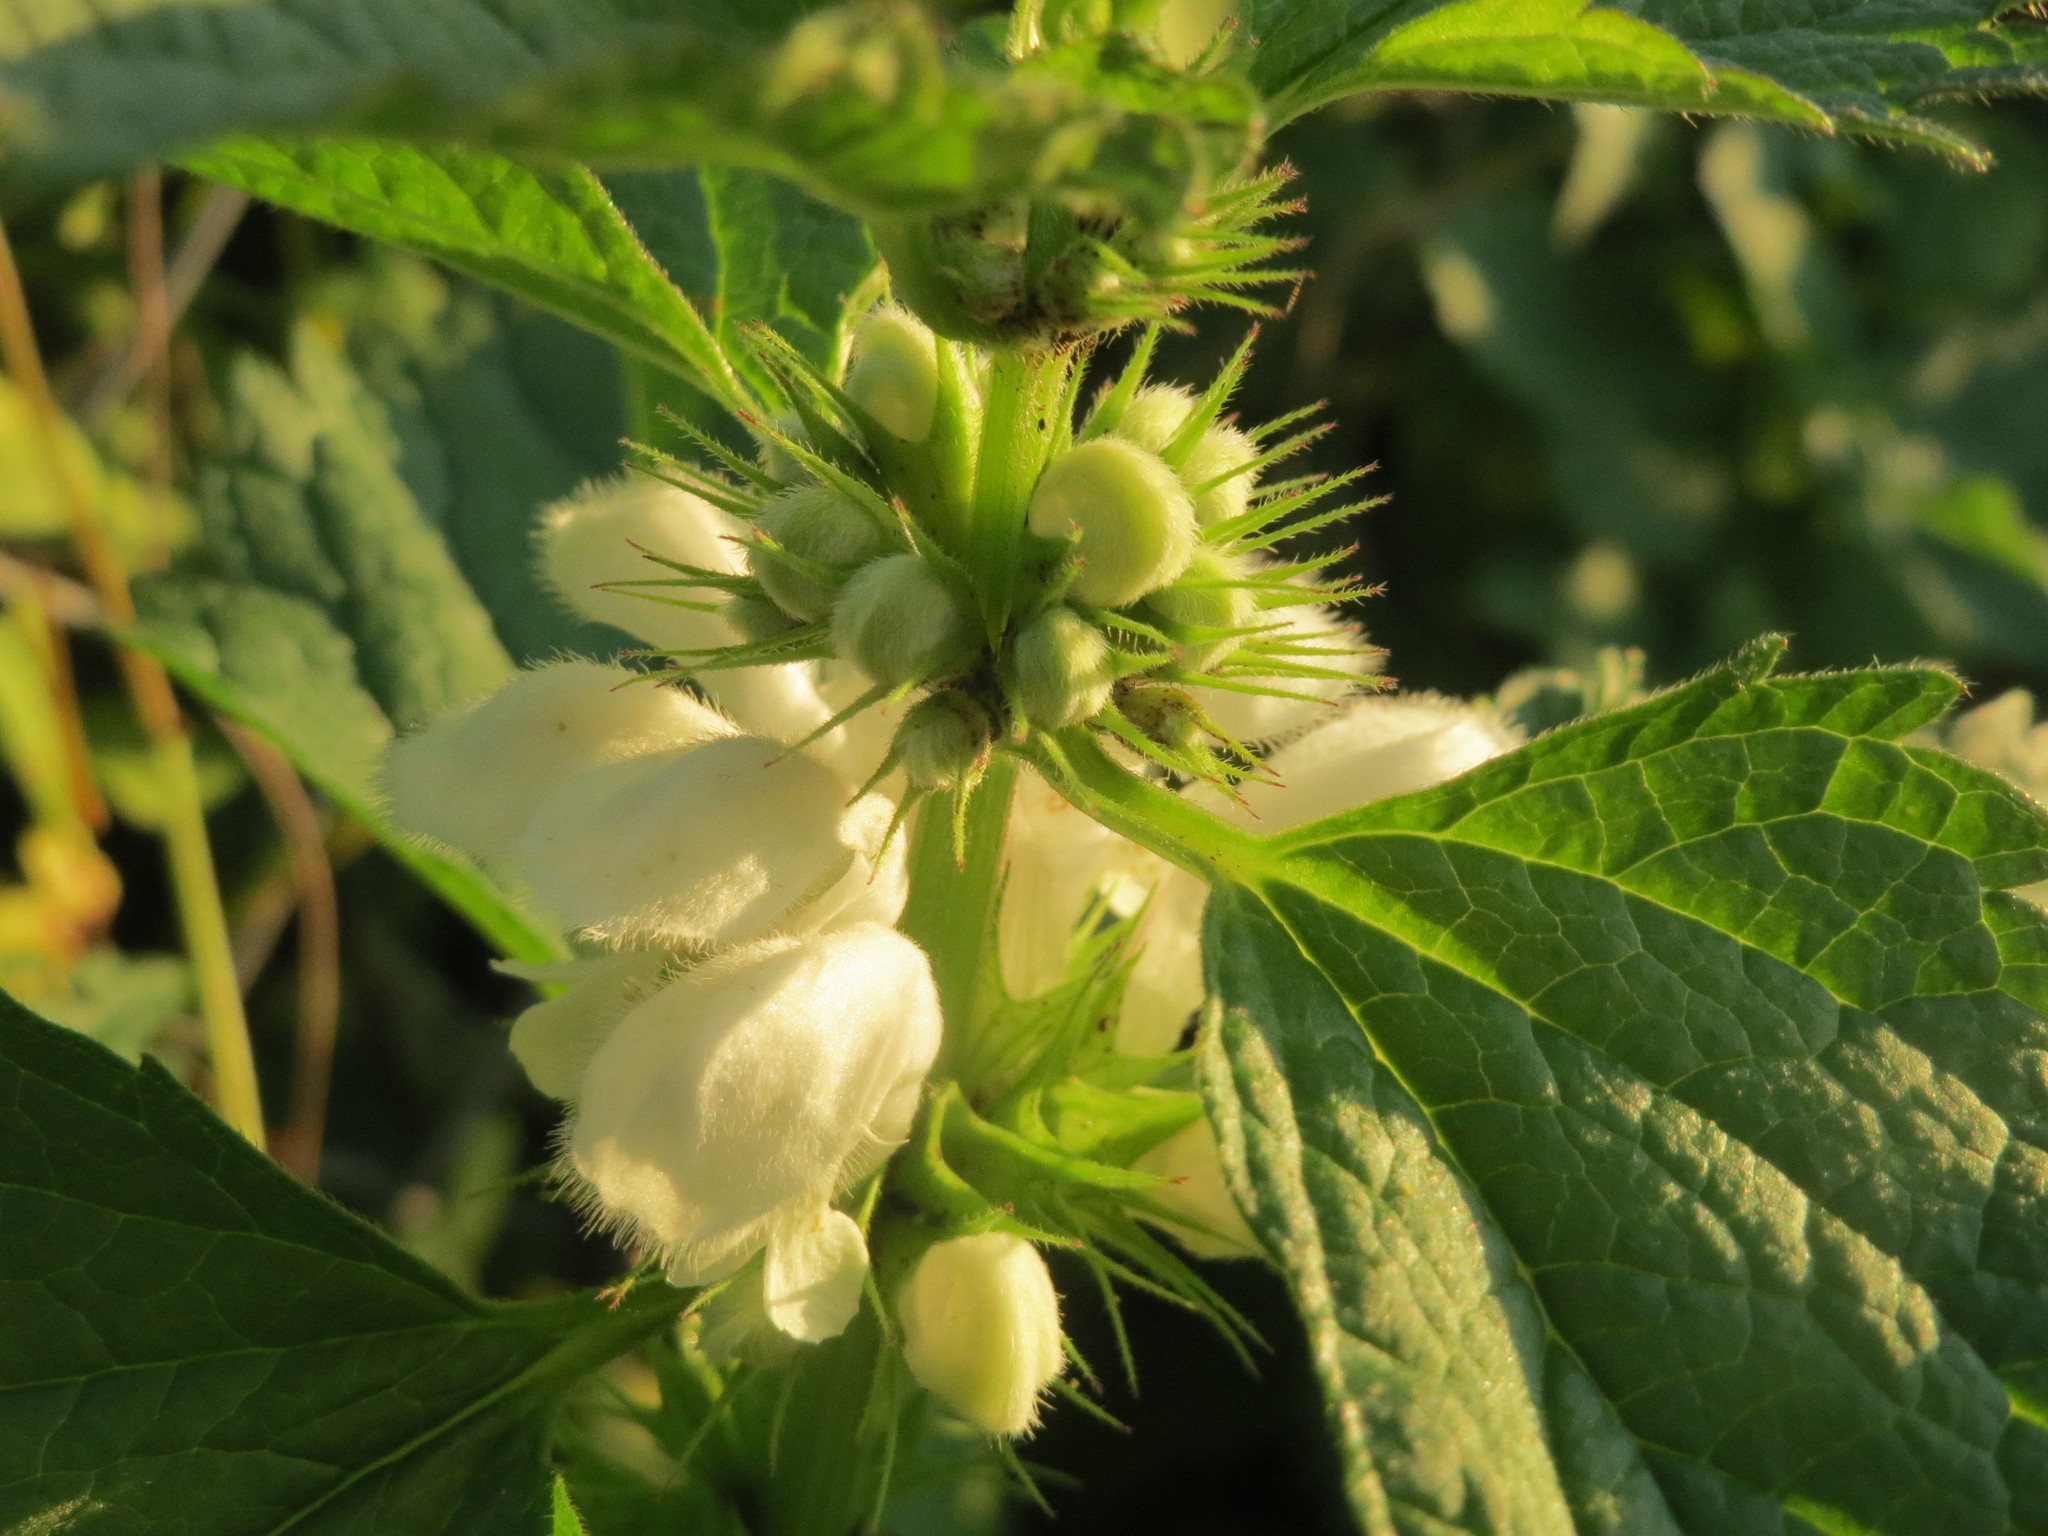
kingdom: Plantae
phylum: Tracheophyta
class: Magnoliopsida
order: Lamiales
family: Lamiaceae
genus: Lamium
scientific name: Lamium album
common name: White dead-nettle
